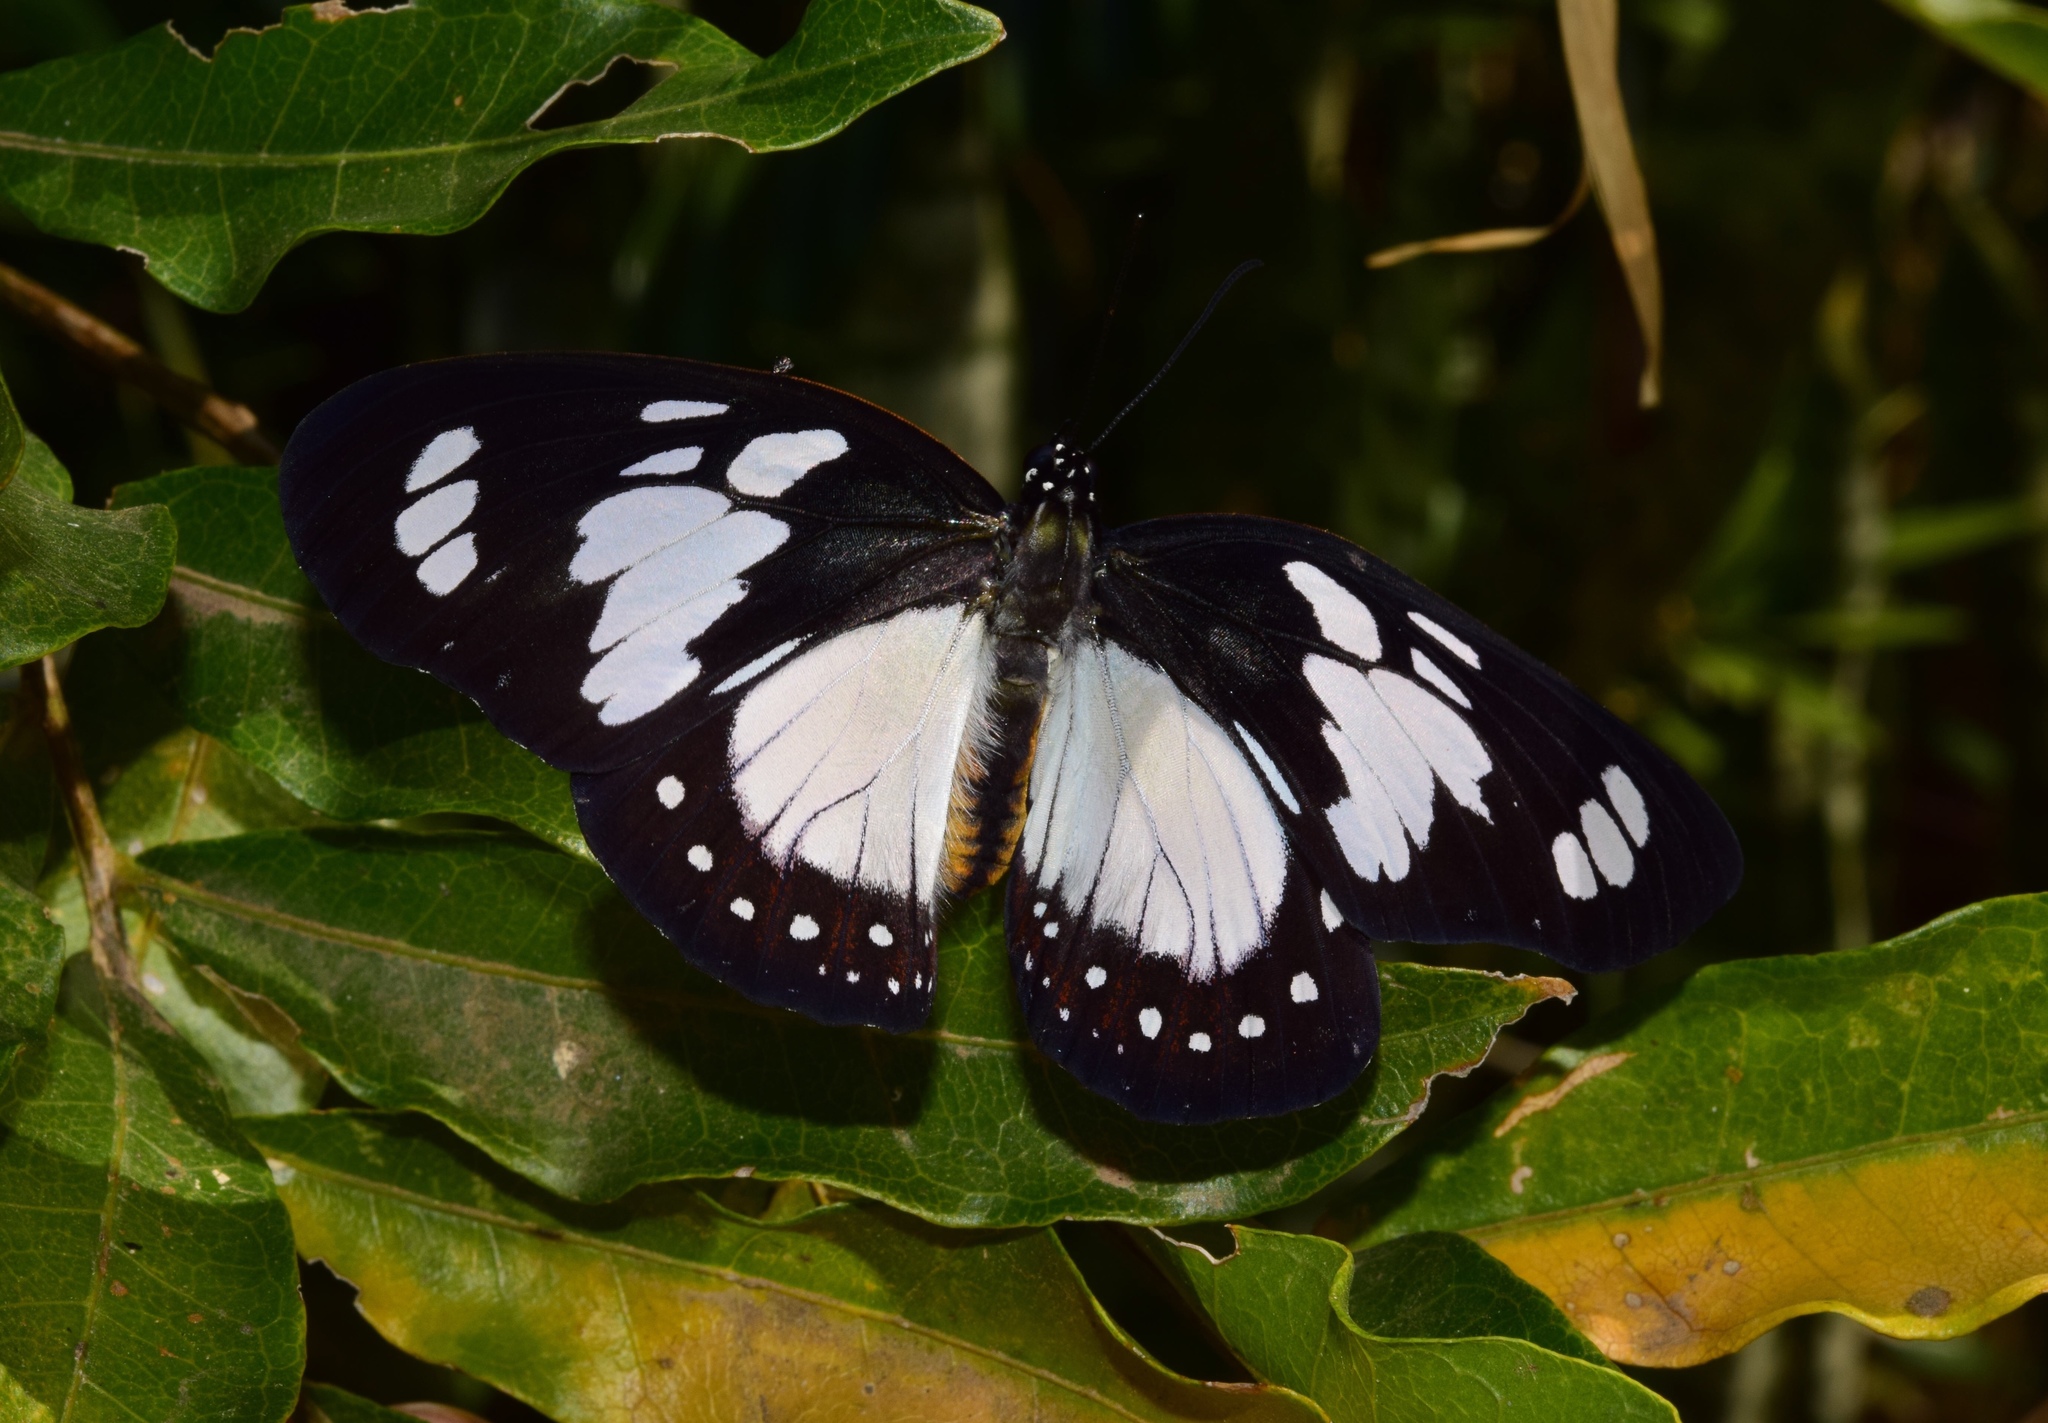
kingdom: Animalia
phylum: Arthropoda
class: Insecta
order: Lepidoptera
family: Nymphalidae
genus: Charaxes
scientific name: Charaxes wakefieldi
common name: Forest queen
